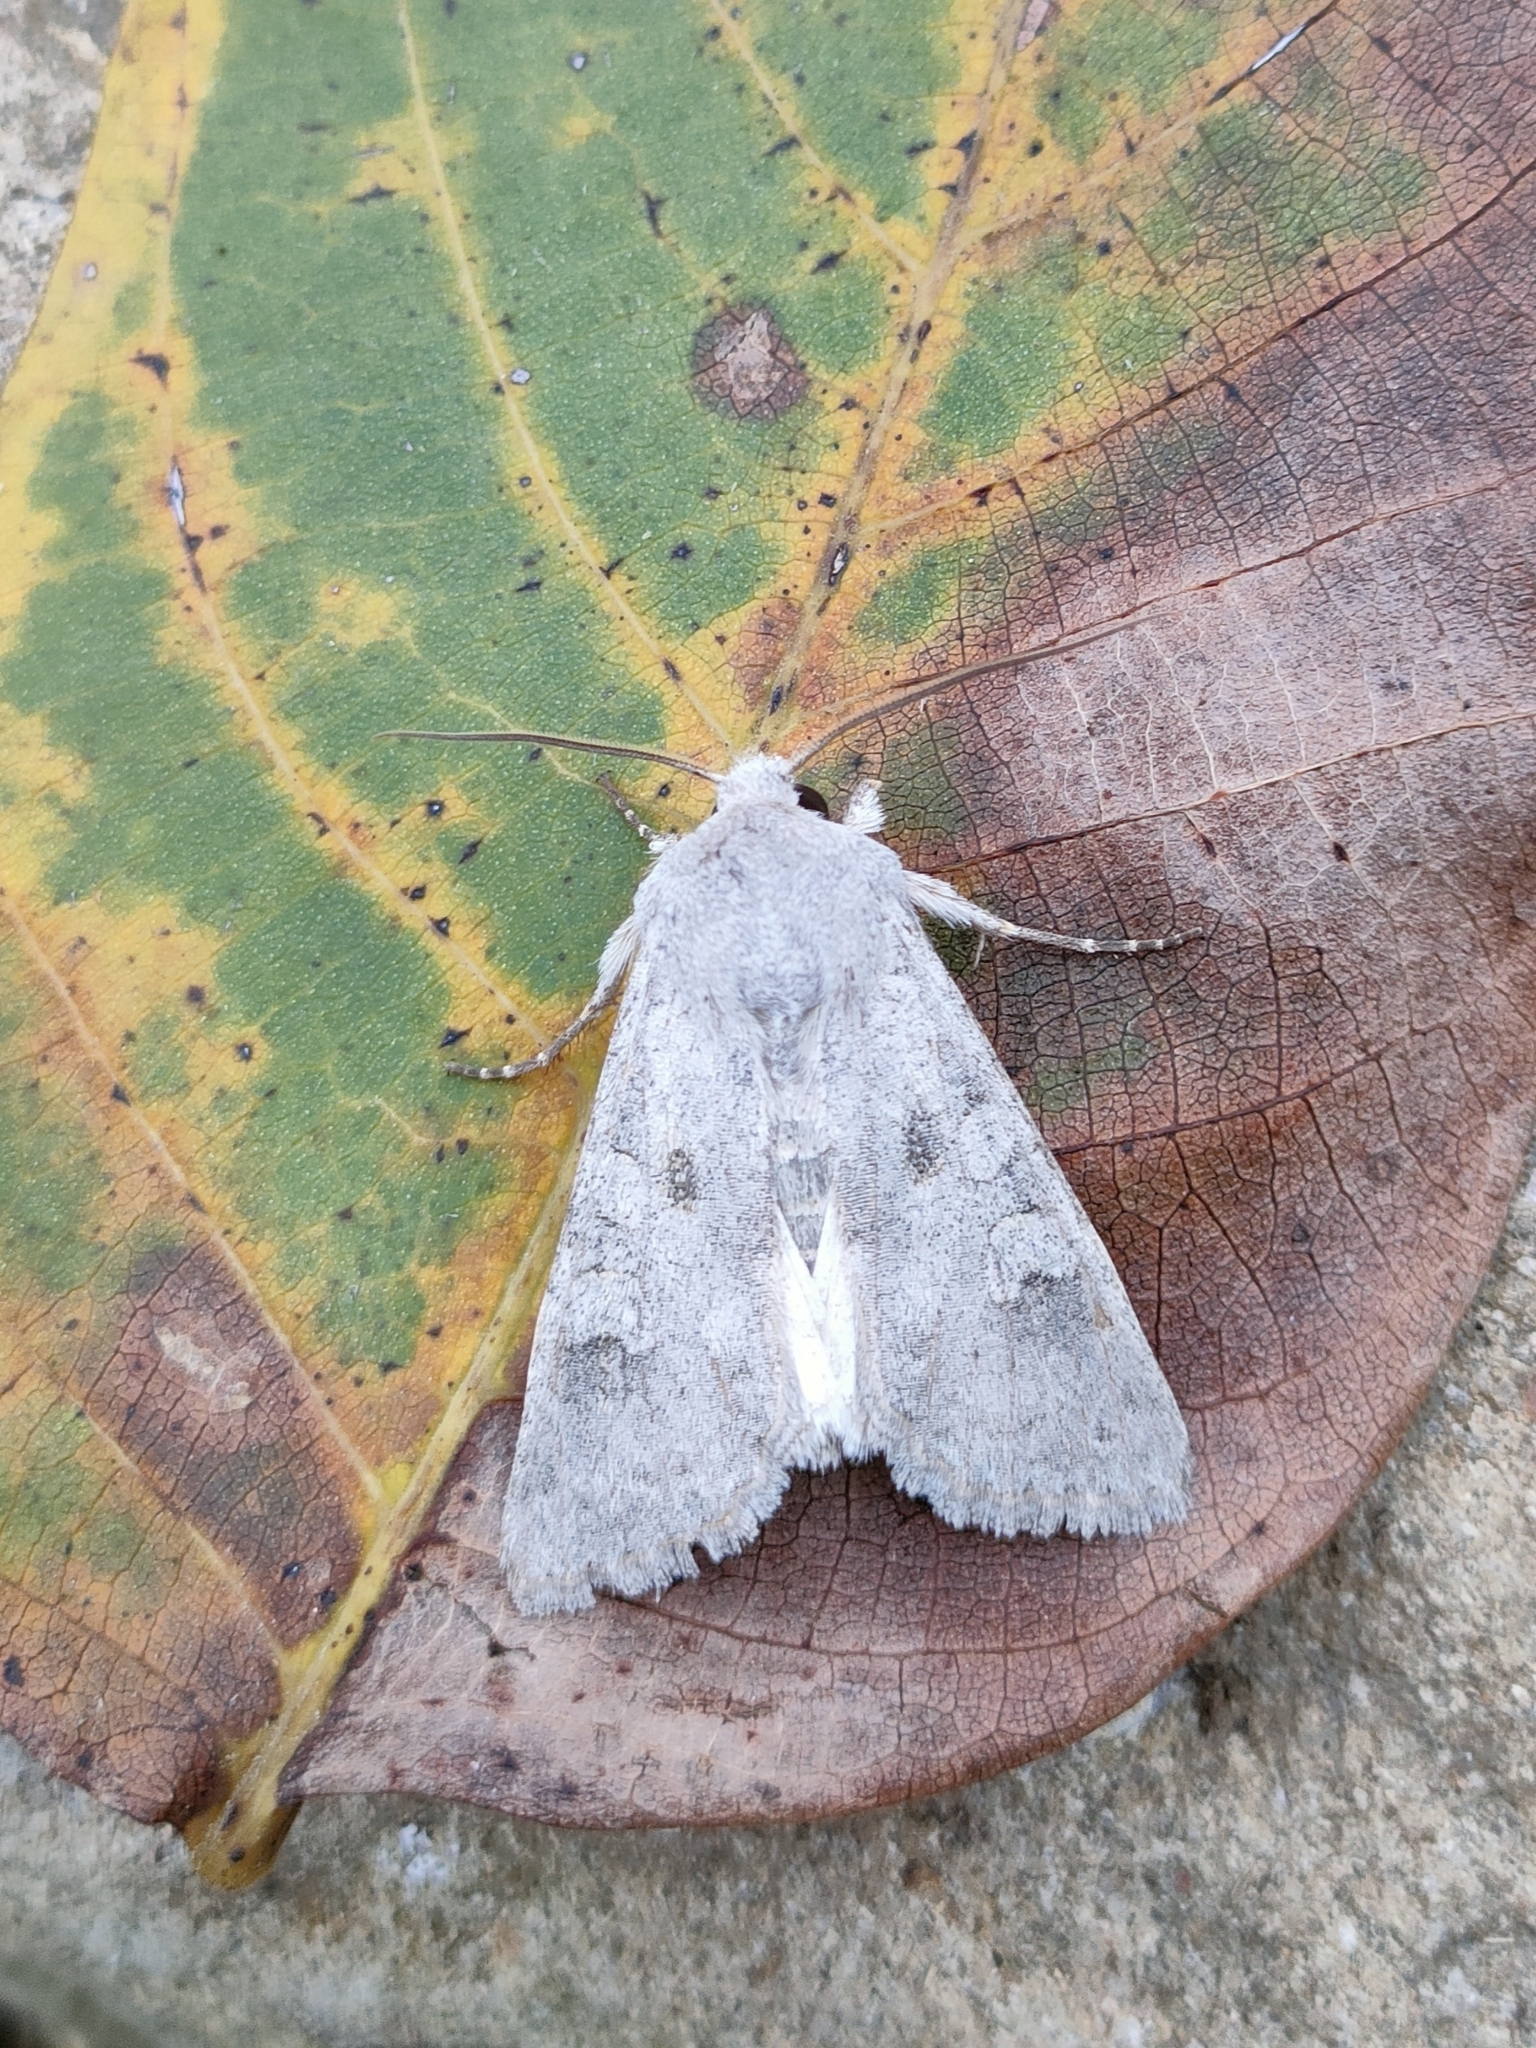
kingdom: Animalia
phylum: Arthropoda
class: Insecta
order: Lepidoptera
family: Noctuidae
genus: Ammoconia
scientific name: Ammoconia senex
